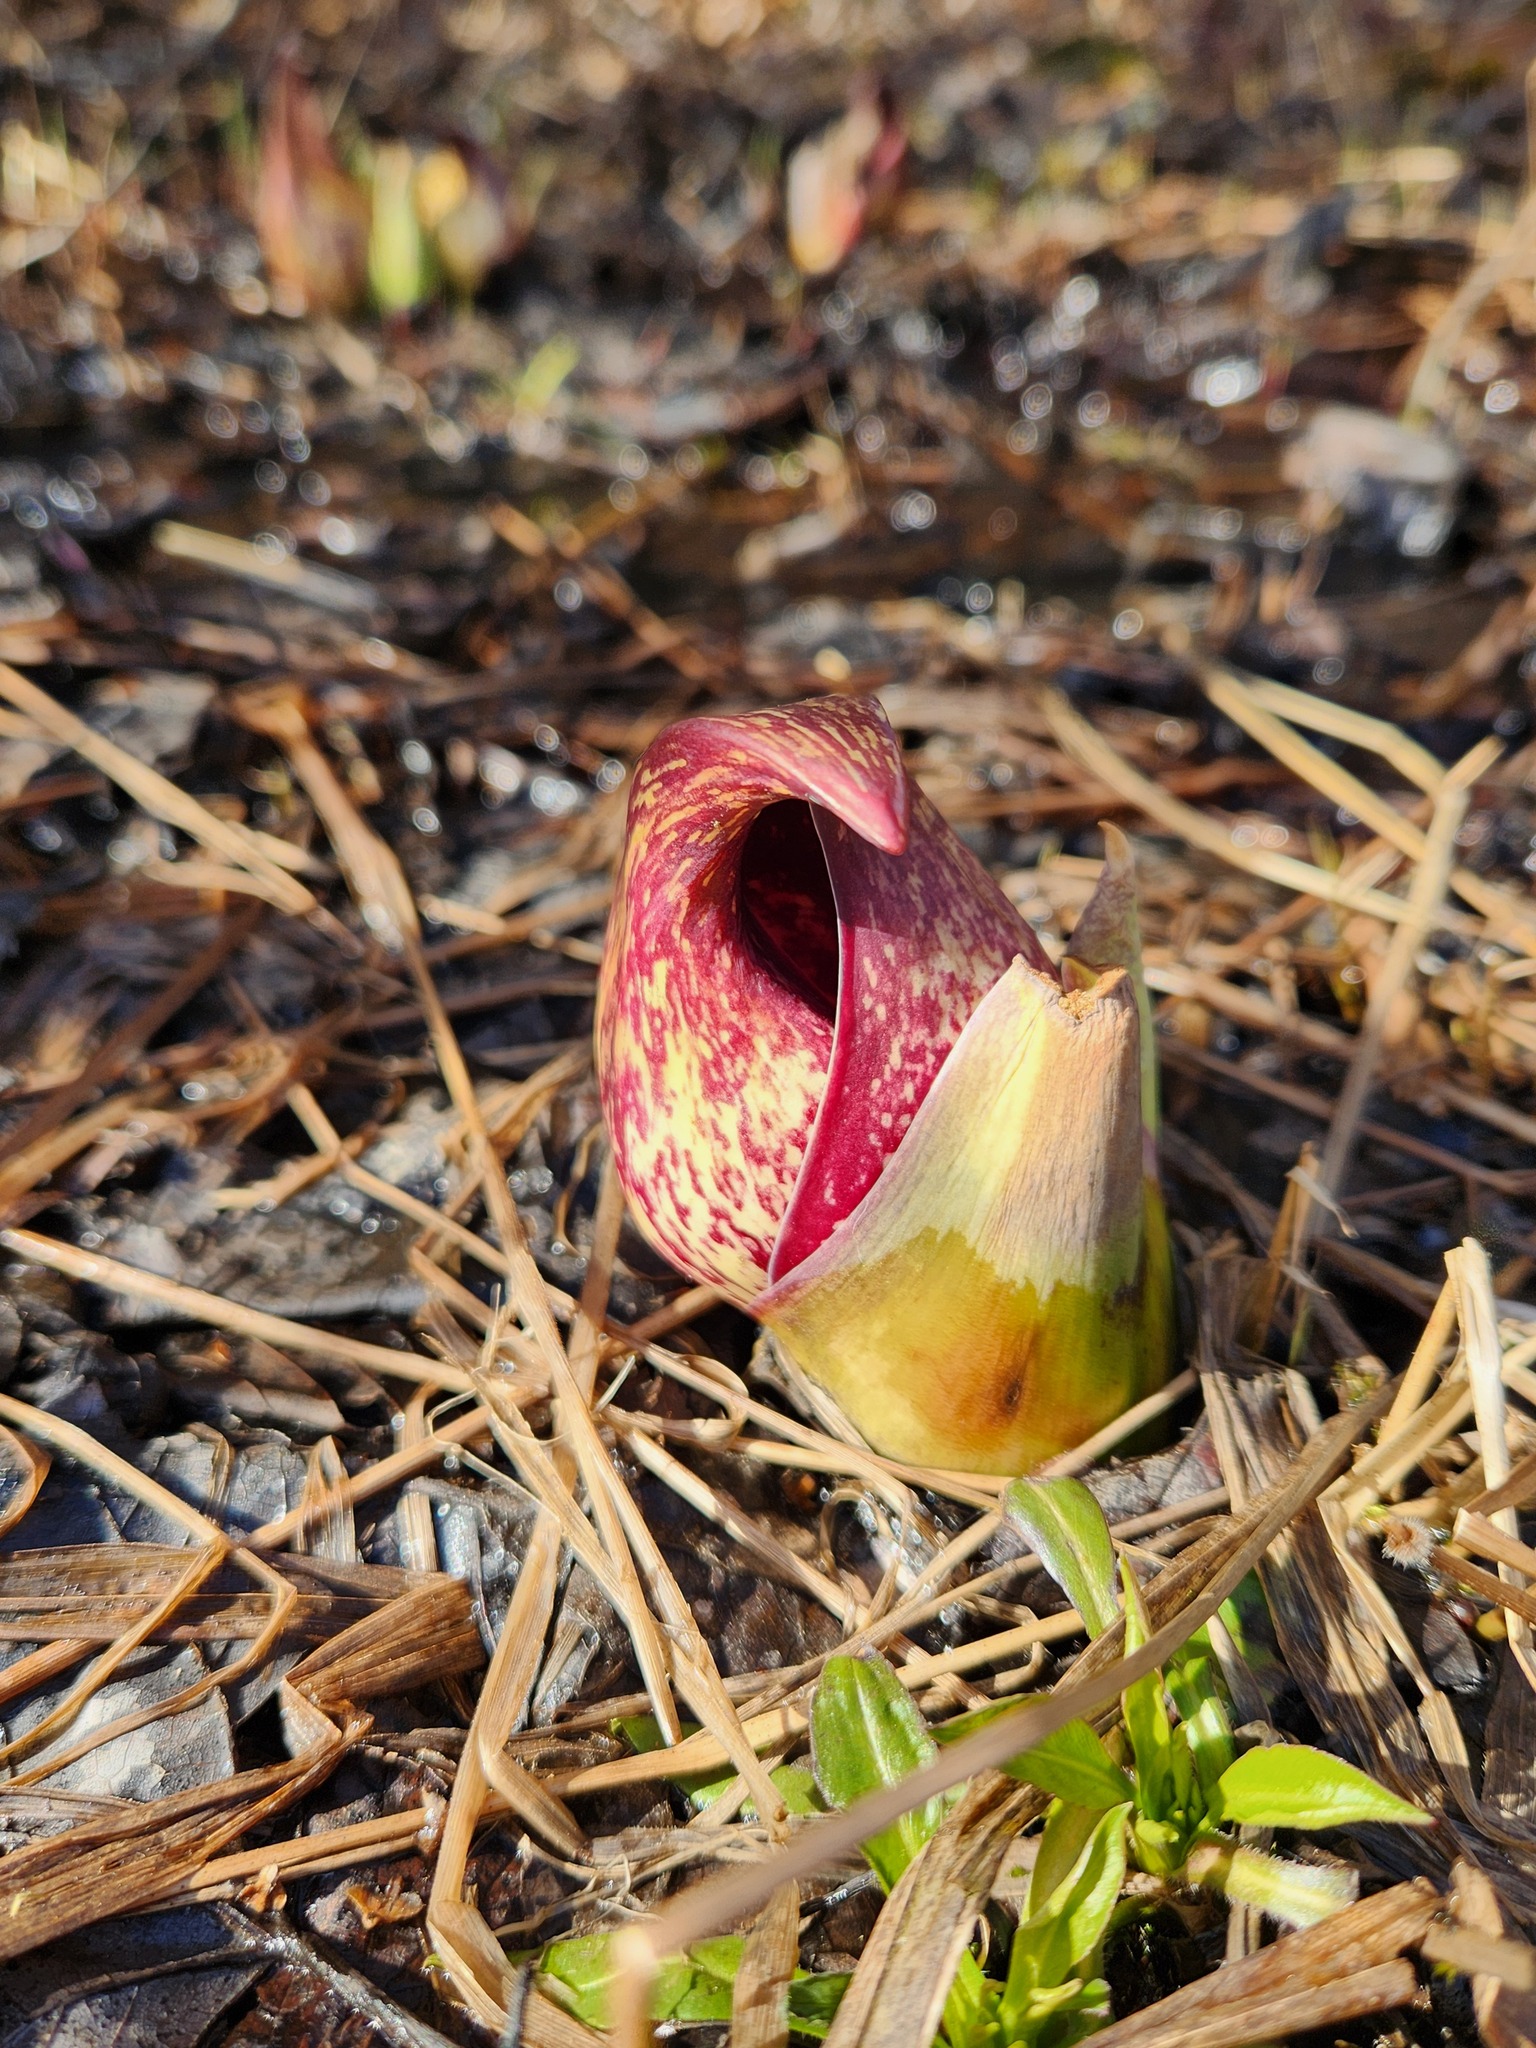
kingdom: Plantae
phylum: Tracheophyta
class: Liliopsida
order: Alismatales
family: Araceae
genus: Symplocarpus
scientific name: Symplocarpus foetidus
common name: Eastern skunk cabbage
